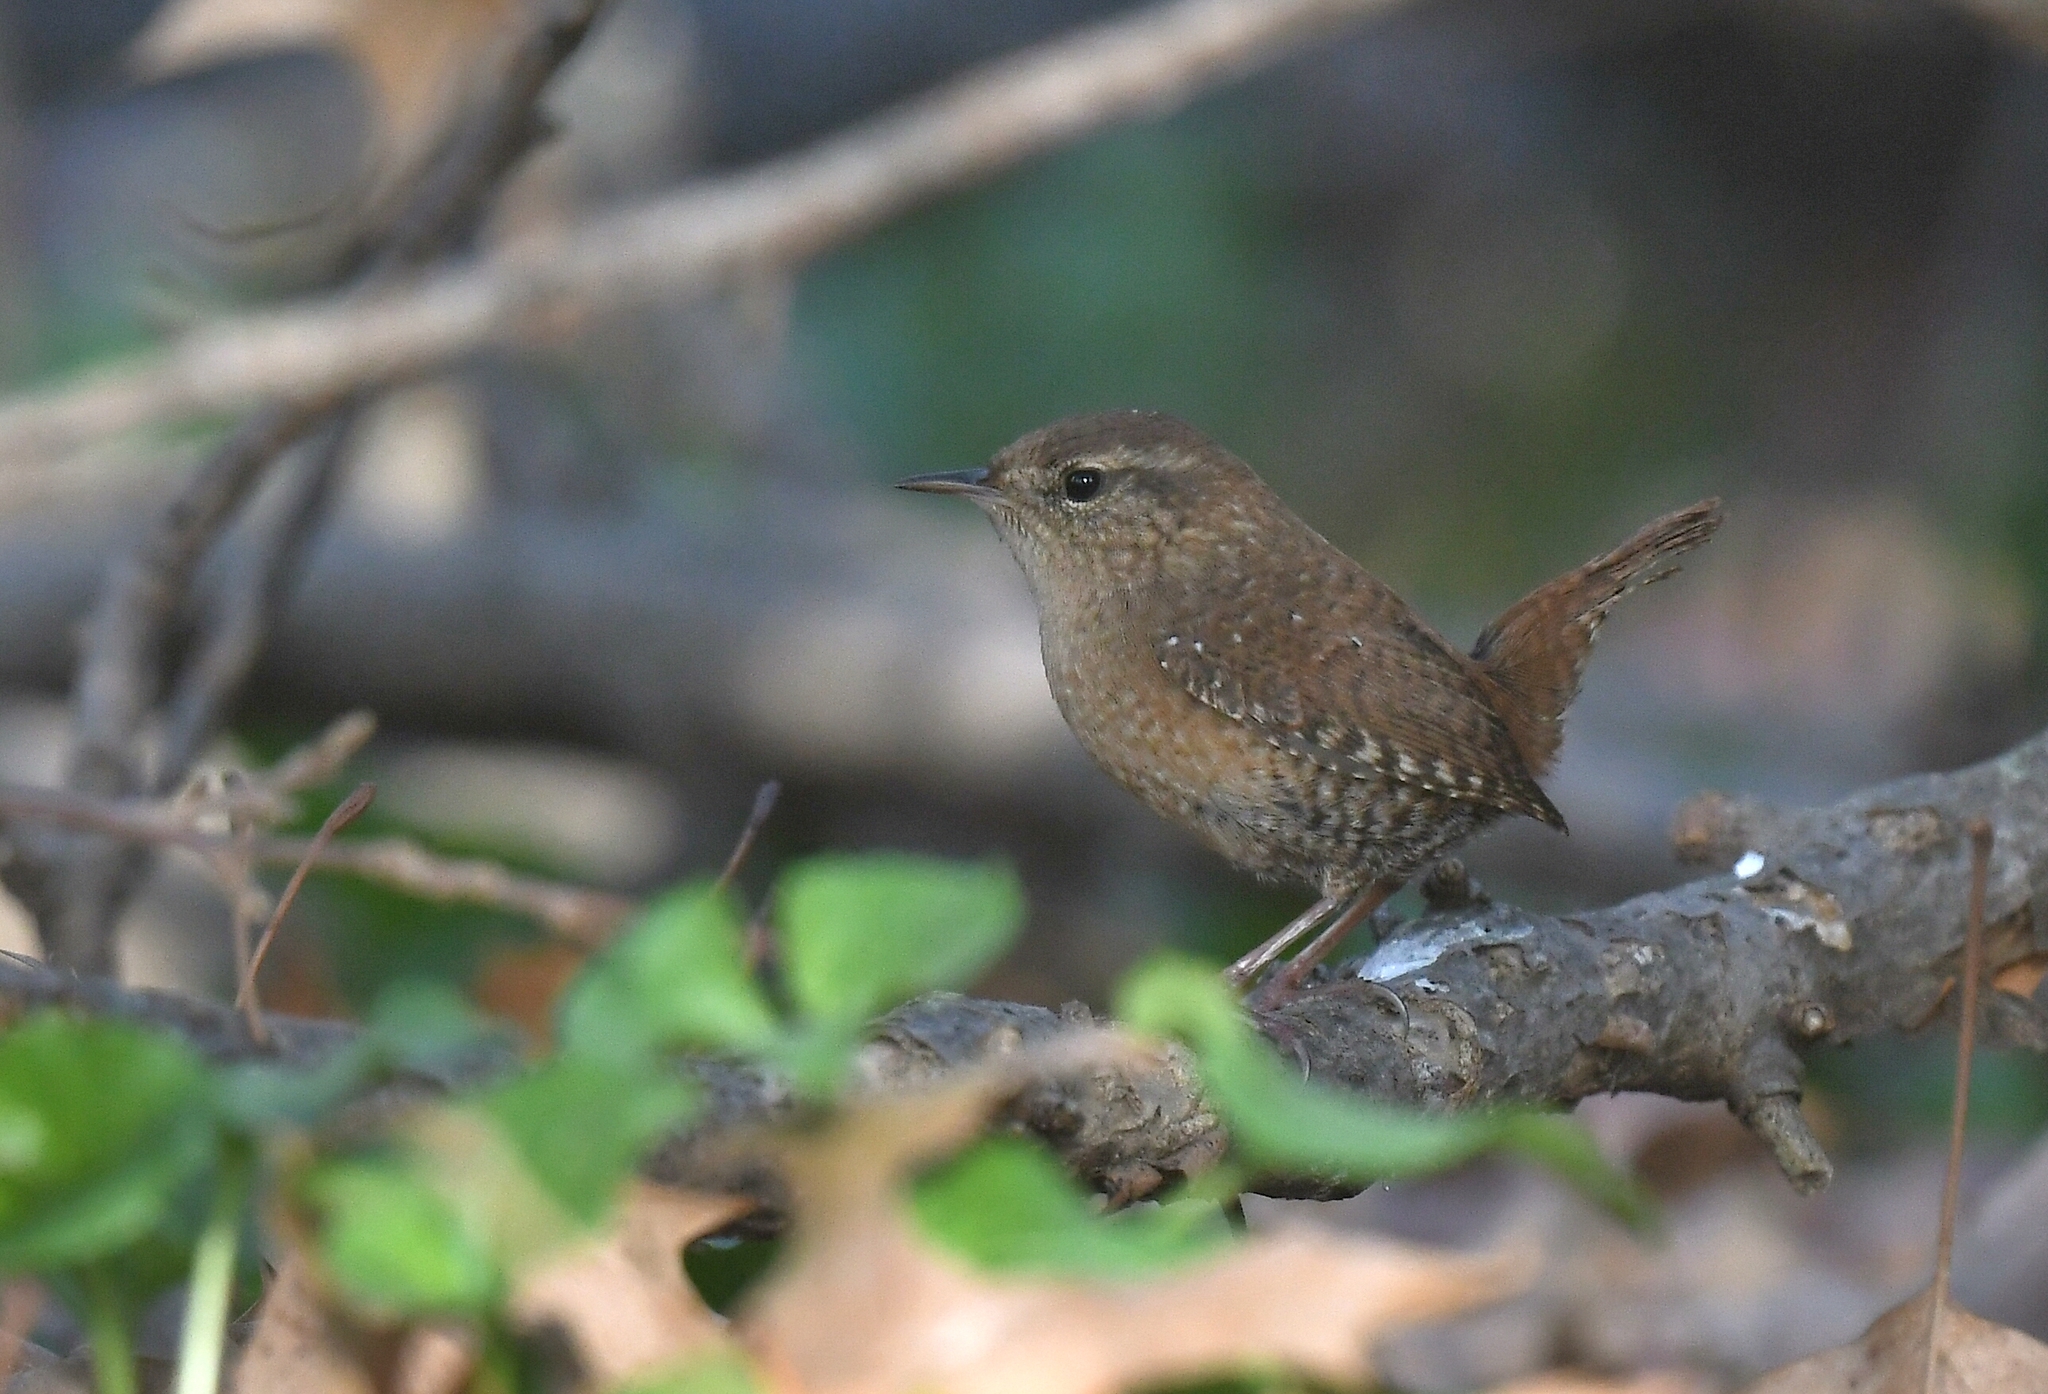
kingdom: Animalia
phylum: Chordata
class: Aves
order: Passeriformes
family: Troglodytidae
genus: Troglodytes
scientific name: Troglodytes hiemalis
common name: Winter wren
